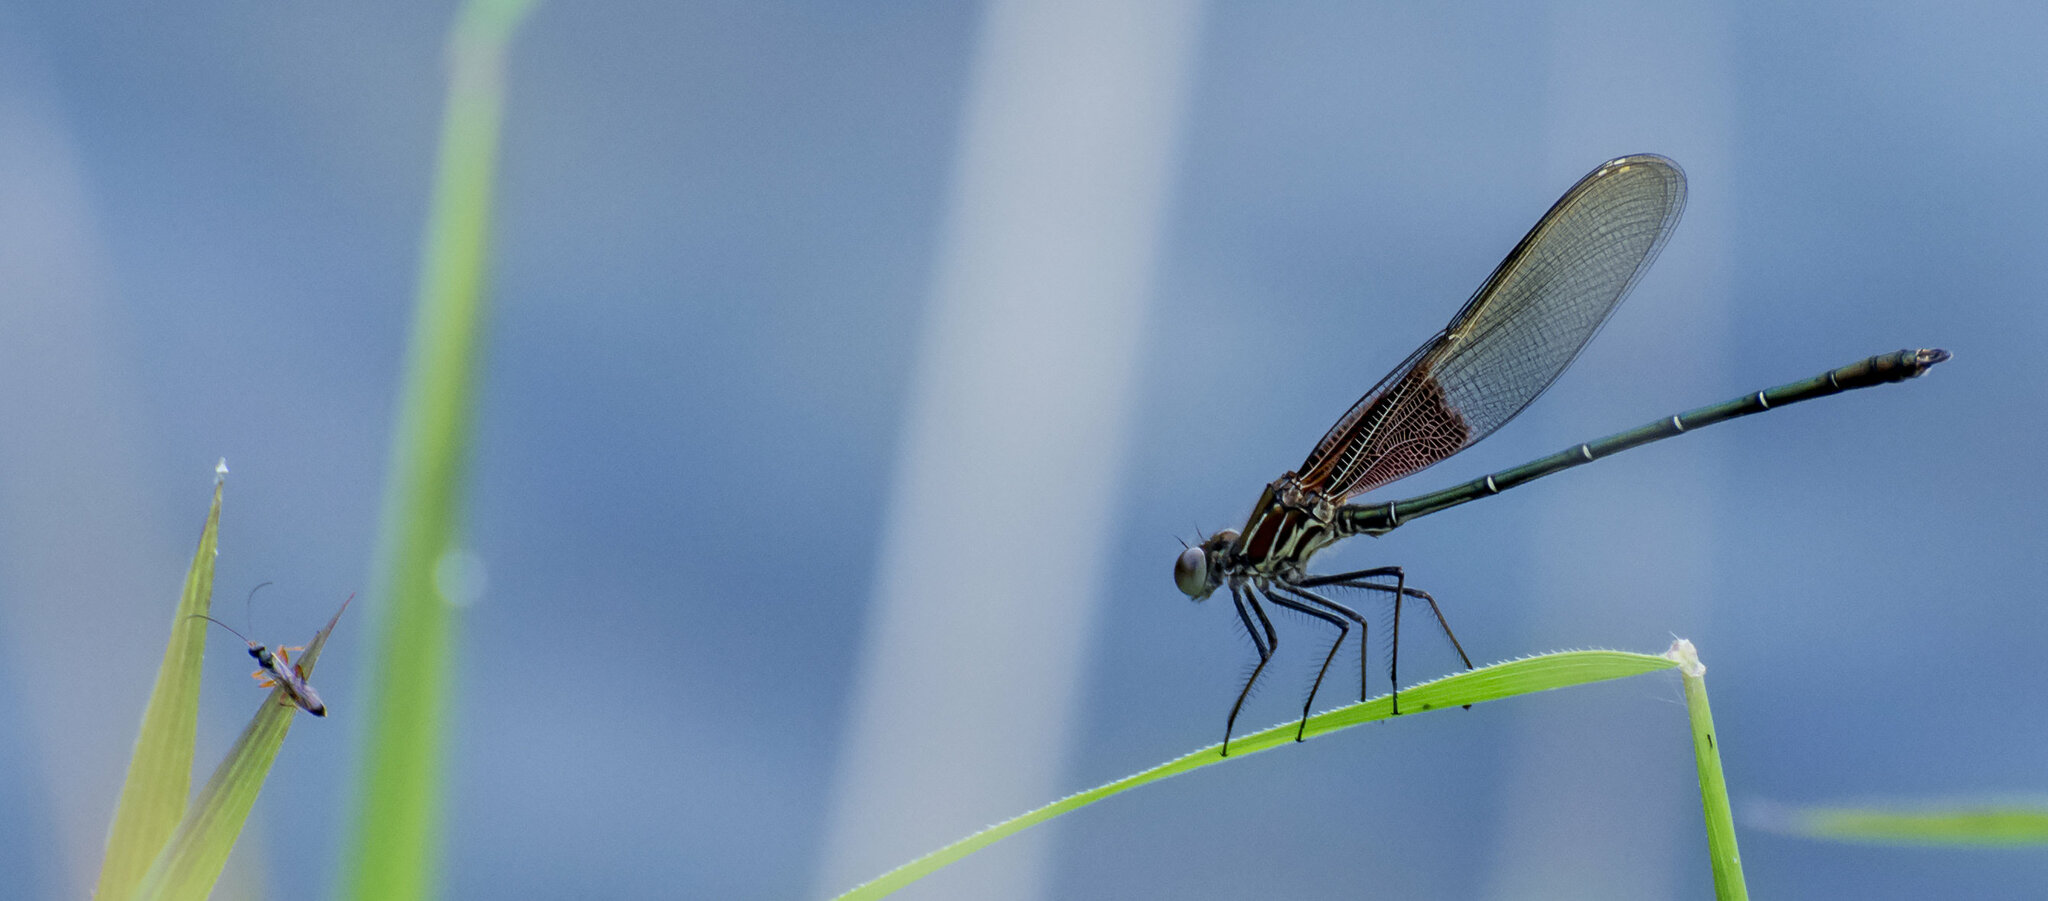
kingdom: Animalia
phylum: Arthropoda
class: Insecta
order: Odonata
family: Calopterygidae
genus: Hetaerina
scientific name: Hetaerina americana
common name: American rubyspot
